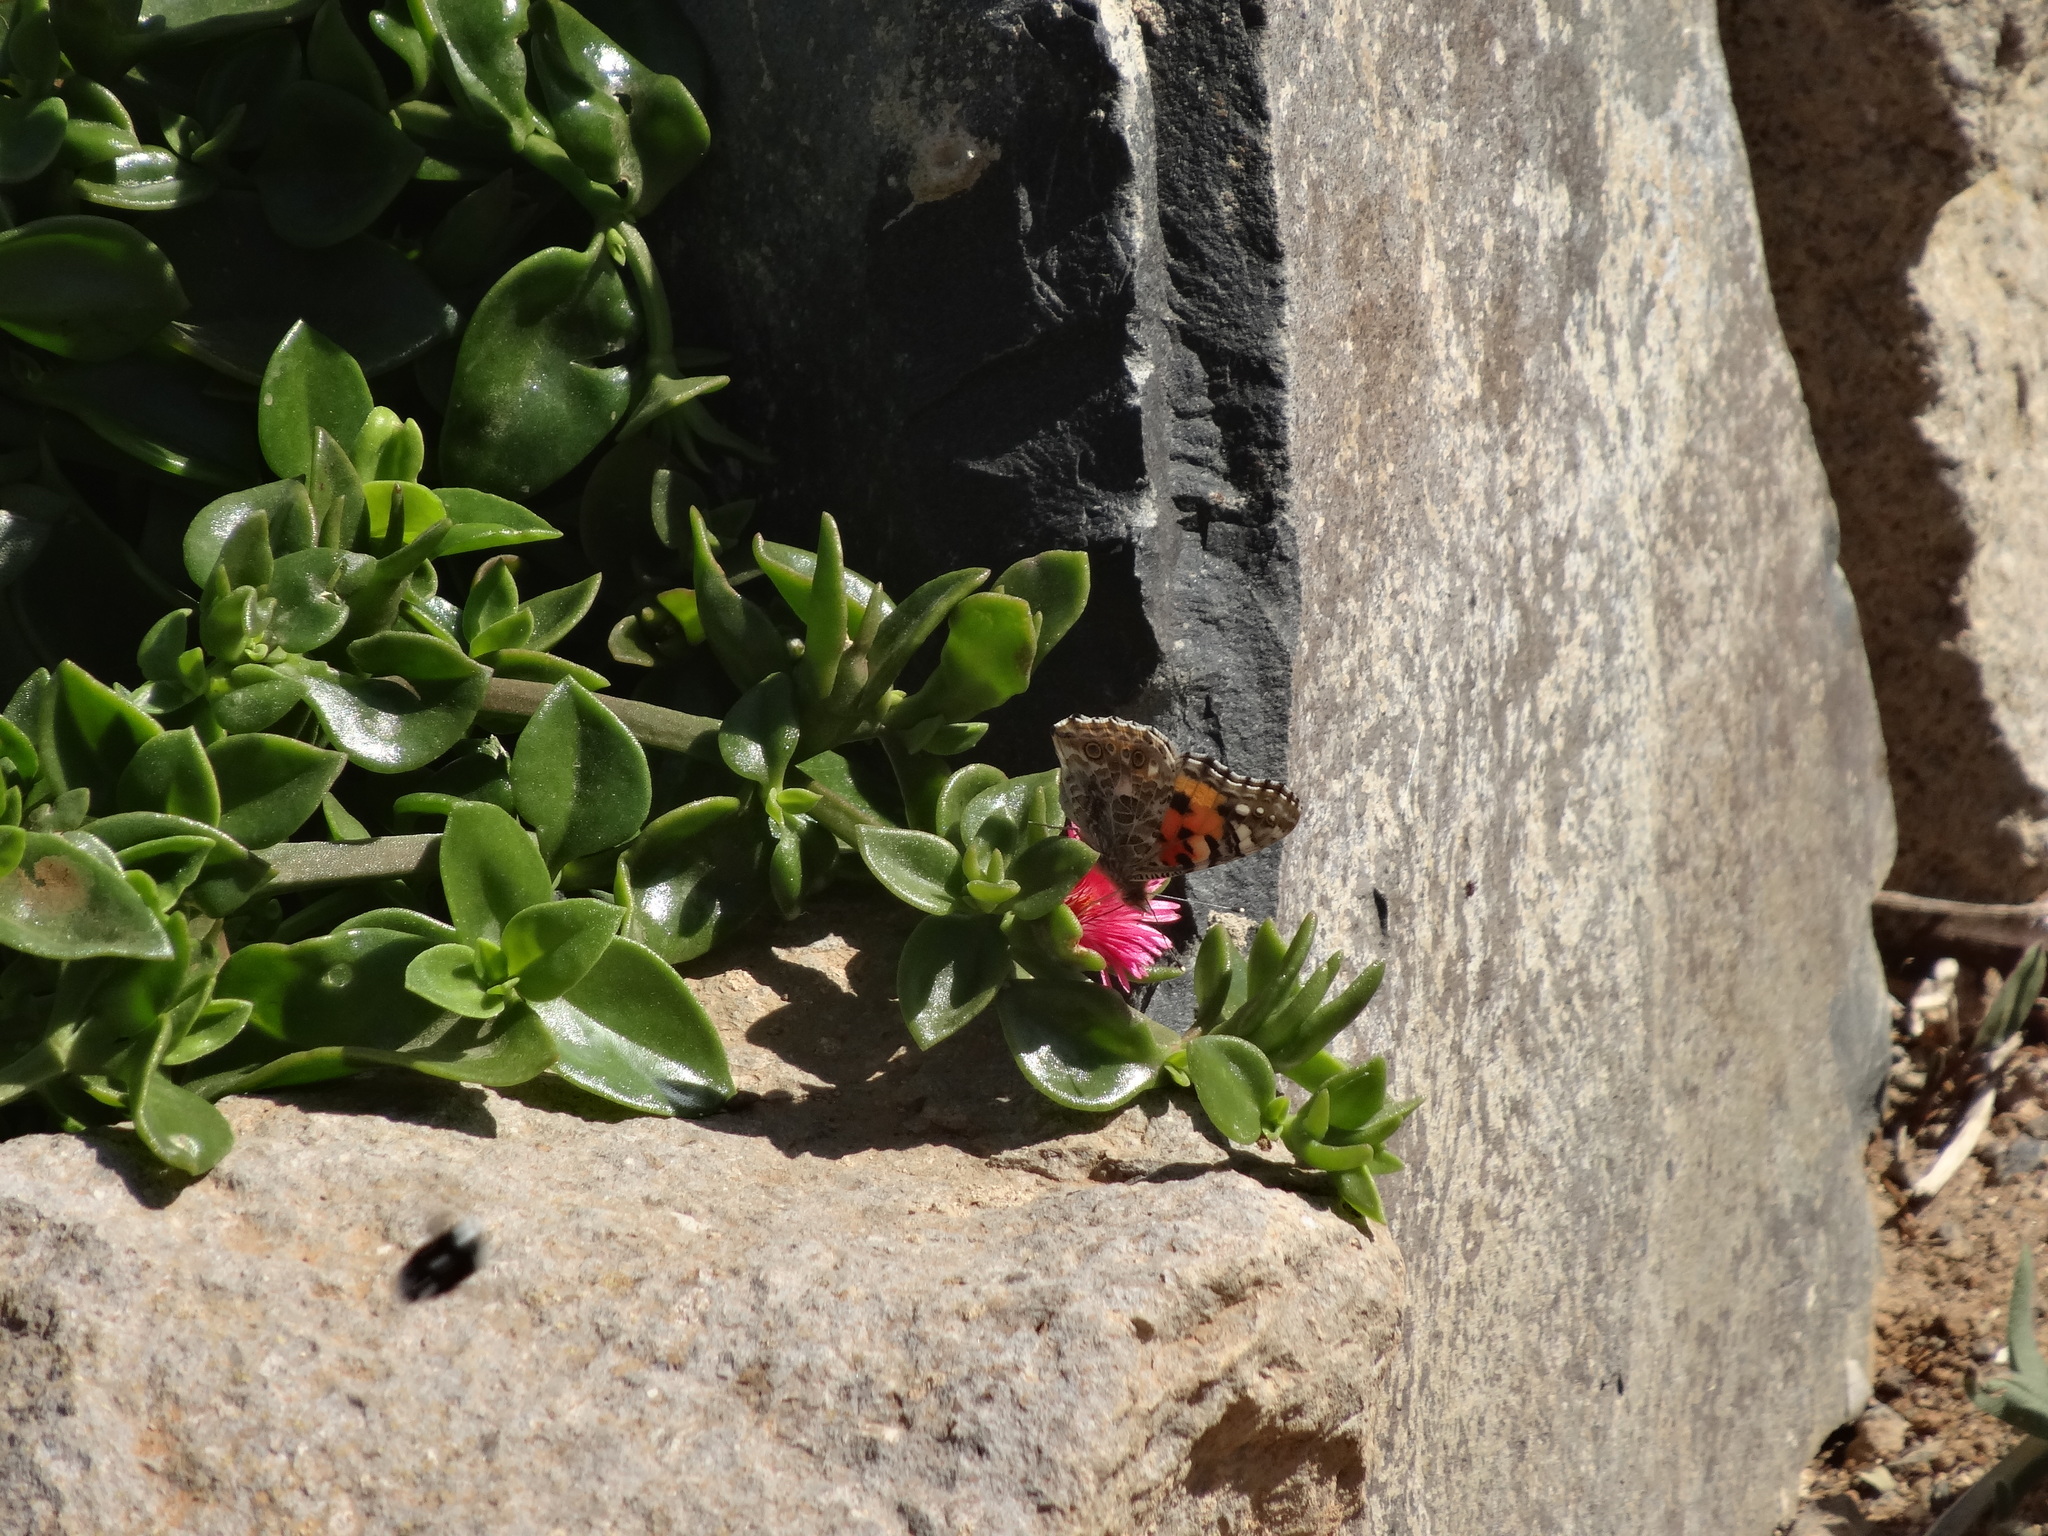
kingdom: Animalia
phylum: Arthropoda
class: Insecta
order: Lepidoptera
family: Nymphalidae
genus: Vanessa
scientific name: Vanessa cardui
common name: Painted lady
